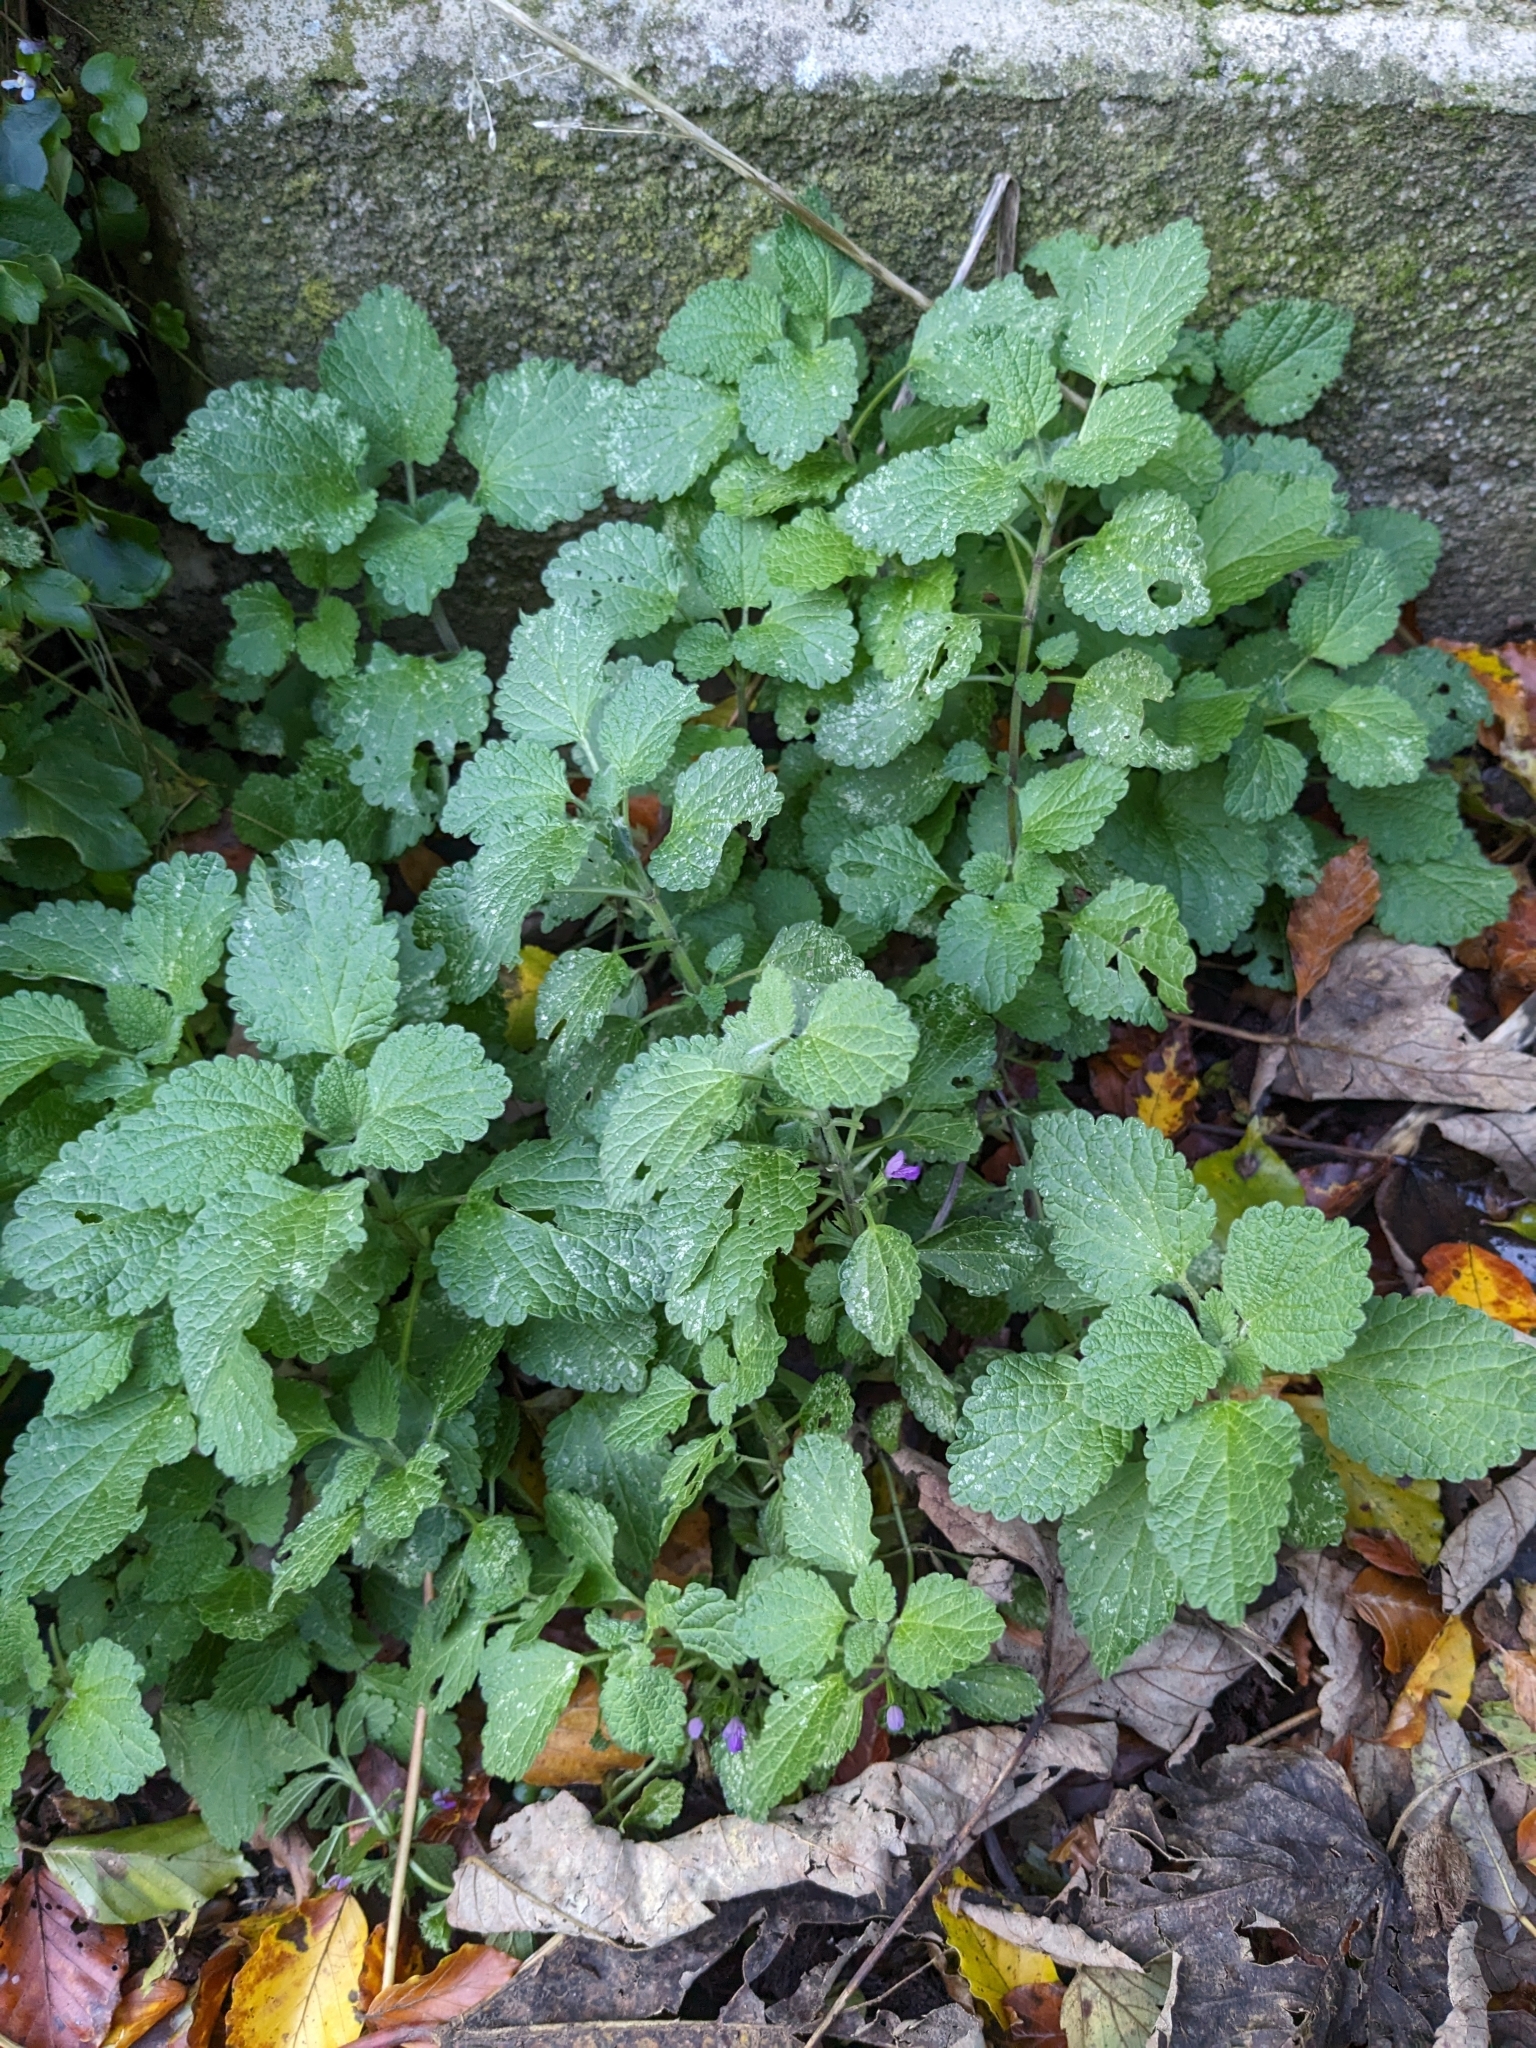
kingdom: Plantae
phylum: Tracheophyta
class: Magnoliopsida
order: Lamiales
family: Lamiaceae
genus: Ballota
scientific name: Ballota nigra
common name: Black horehound
